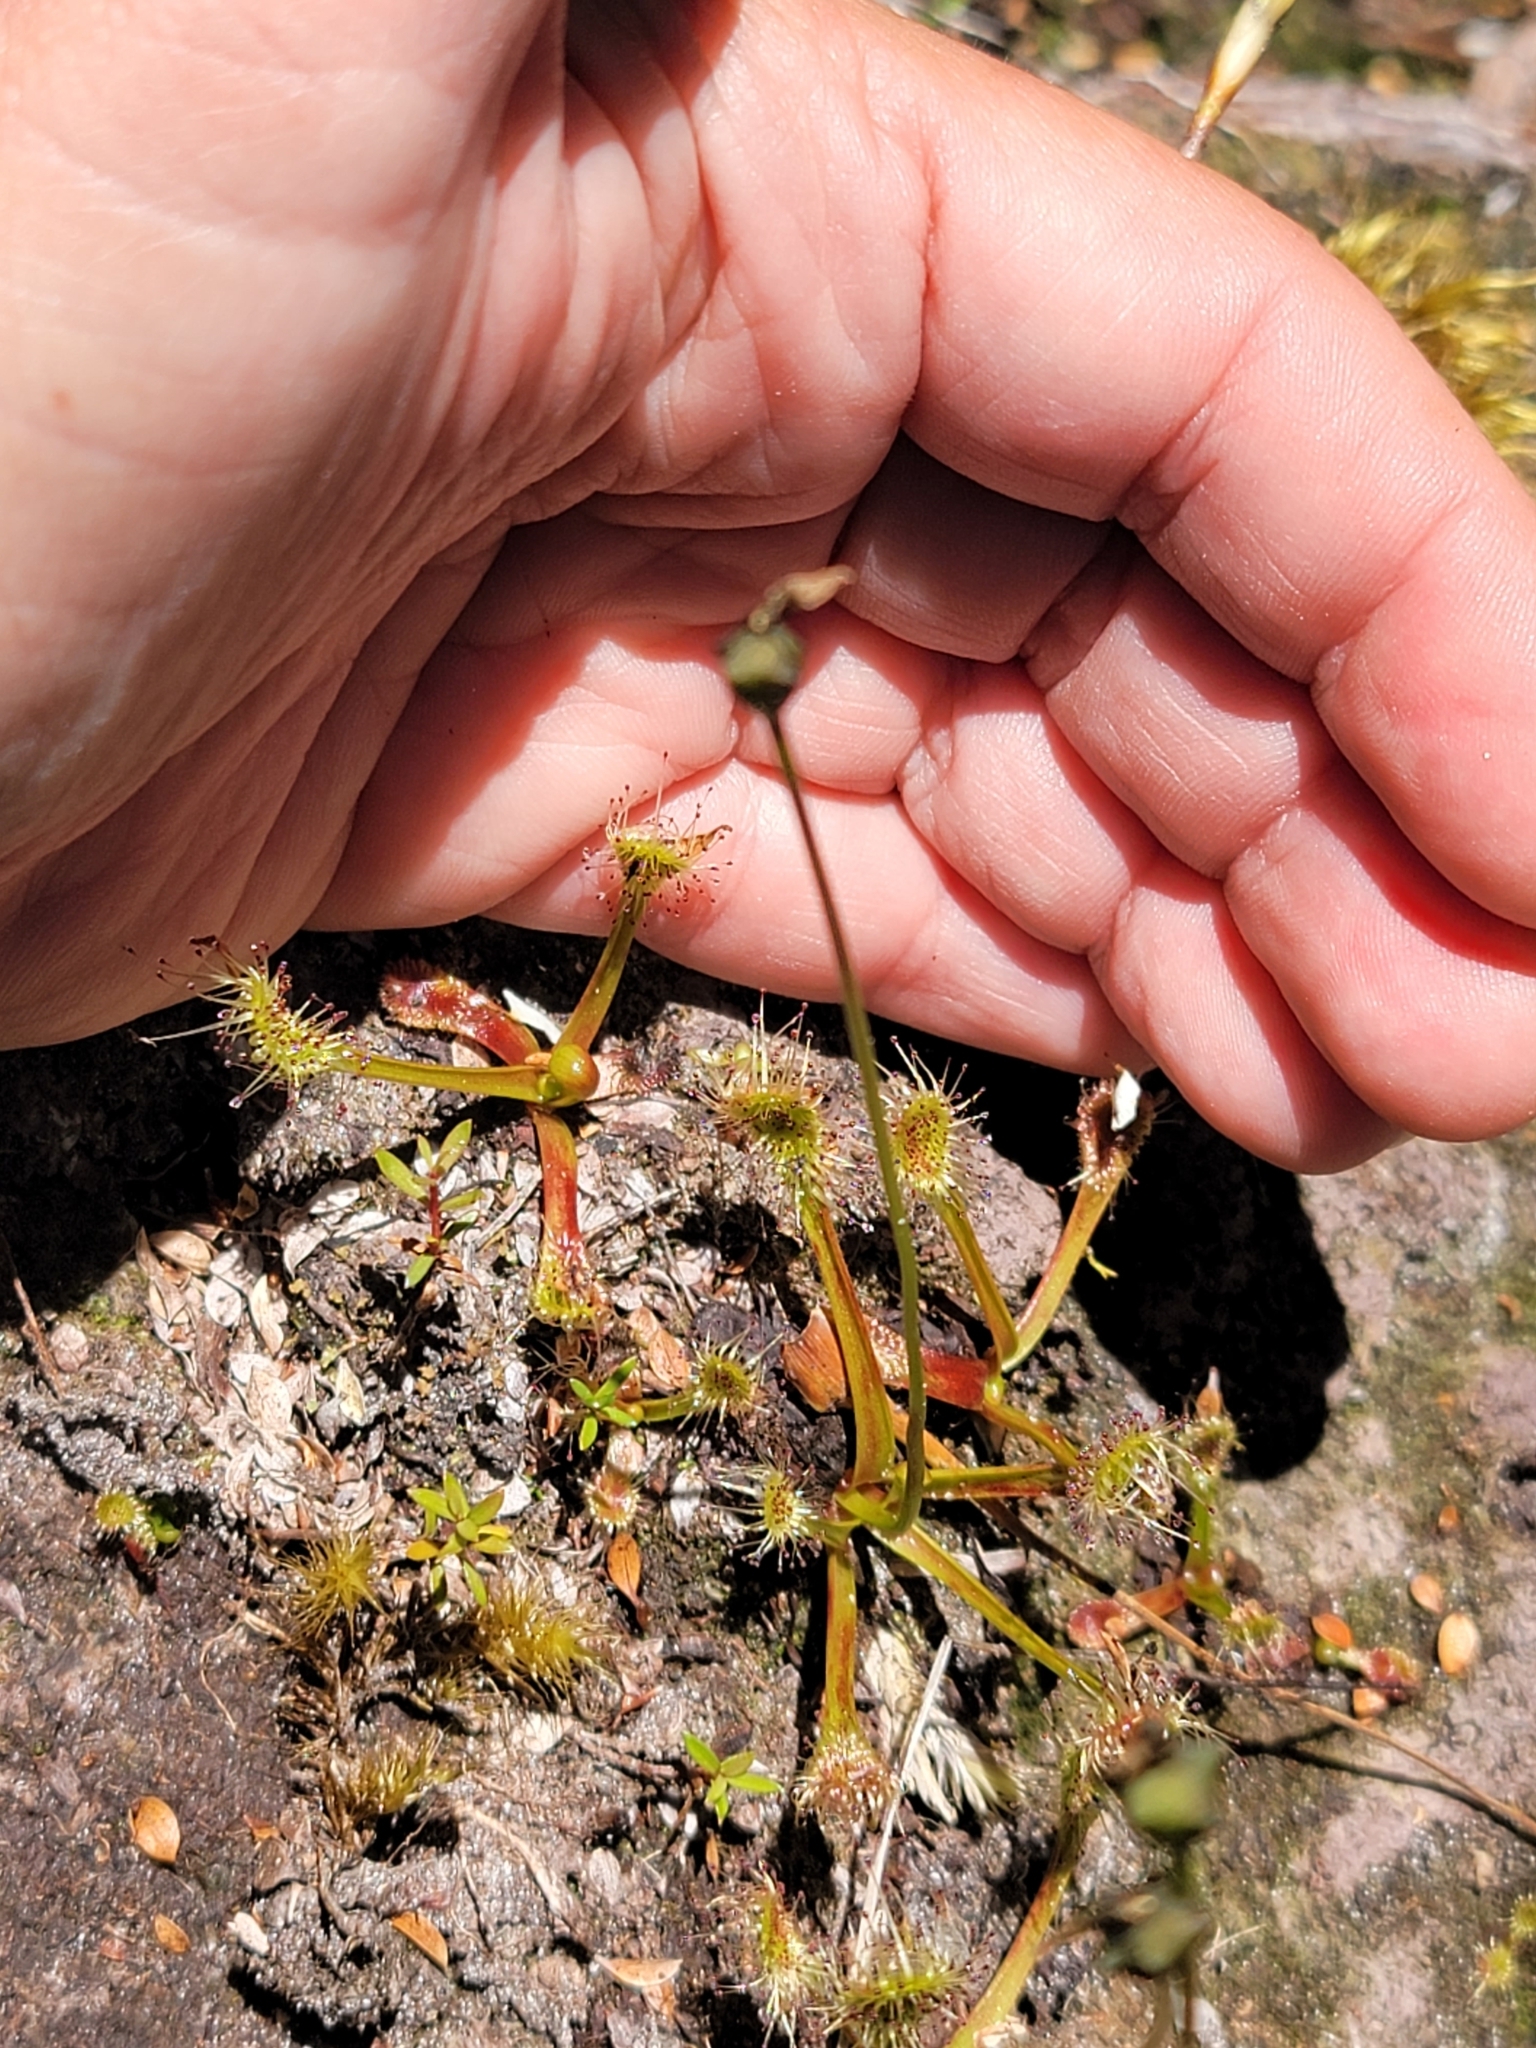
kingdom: Plantae
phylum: Tracheophyta
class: Magnoliopsida
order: Caryophyllales
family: Droseraceae
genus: Drosera
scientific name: Drosera stenopetala
